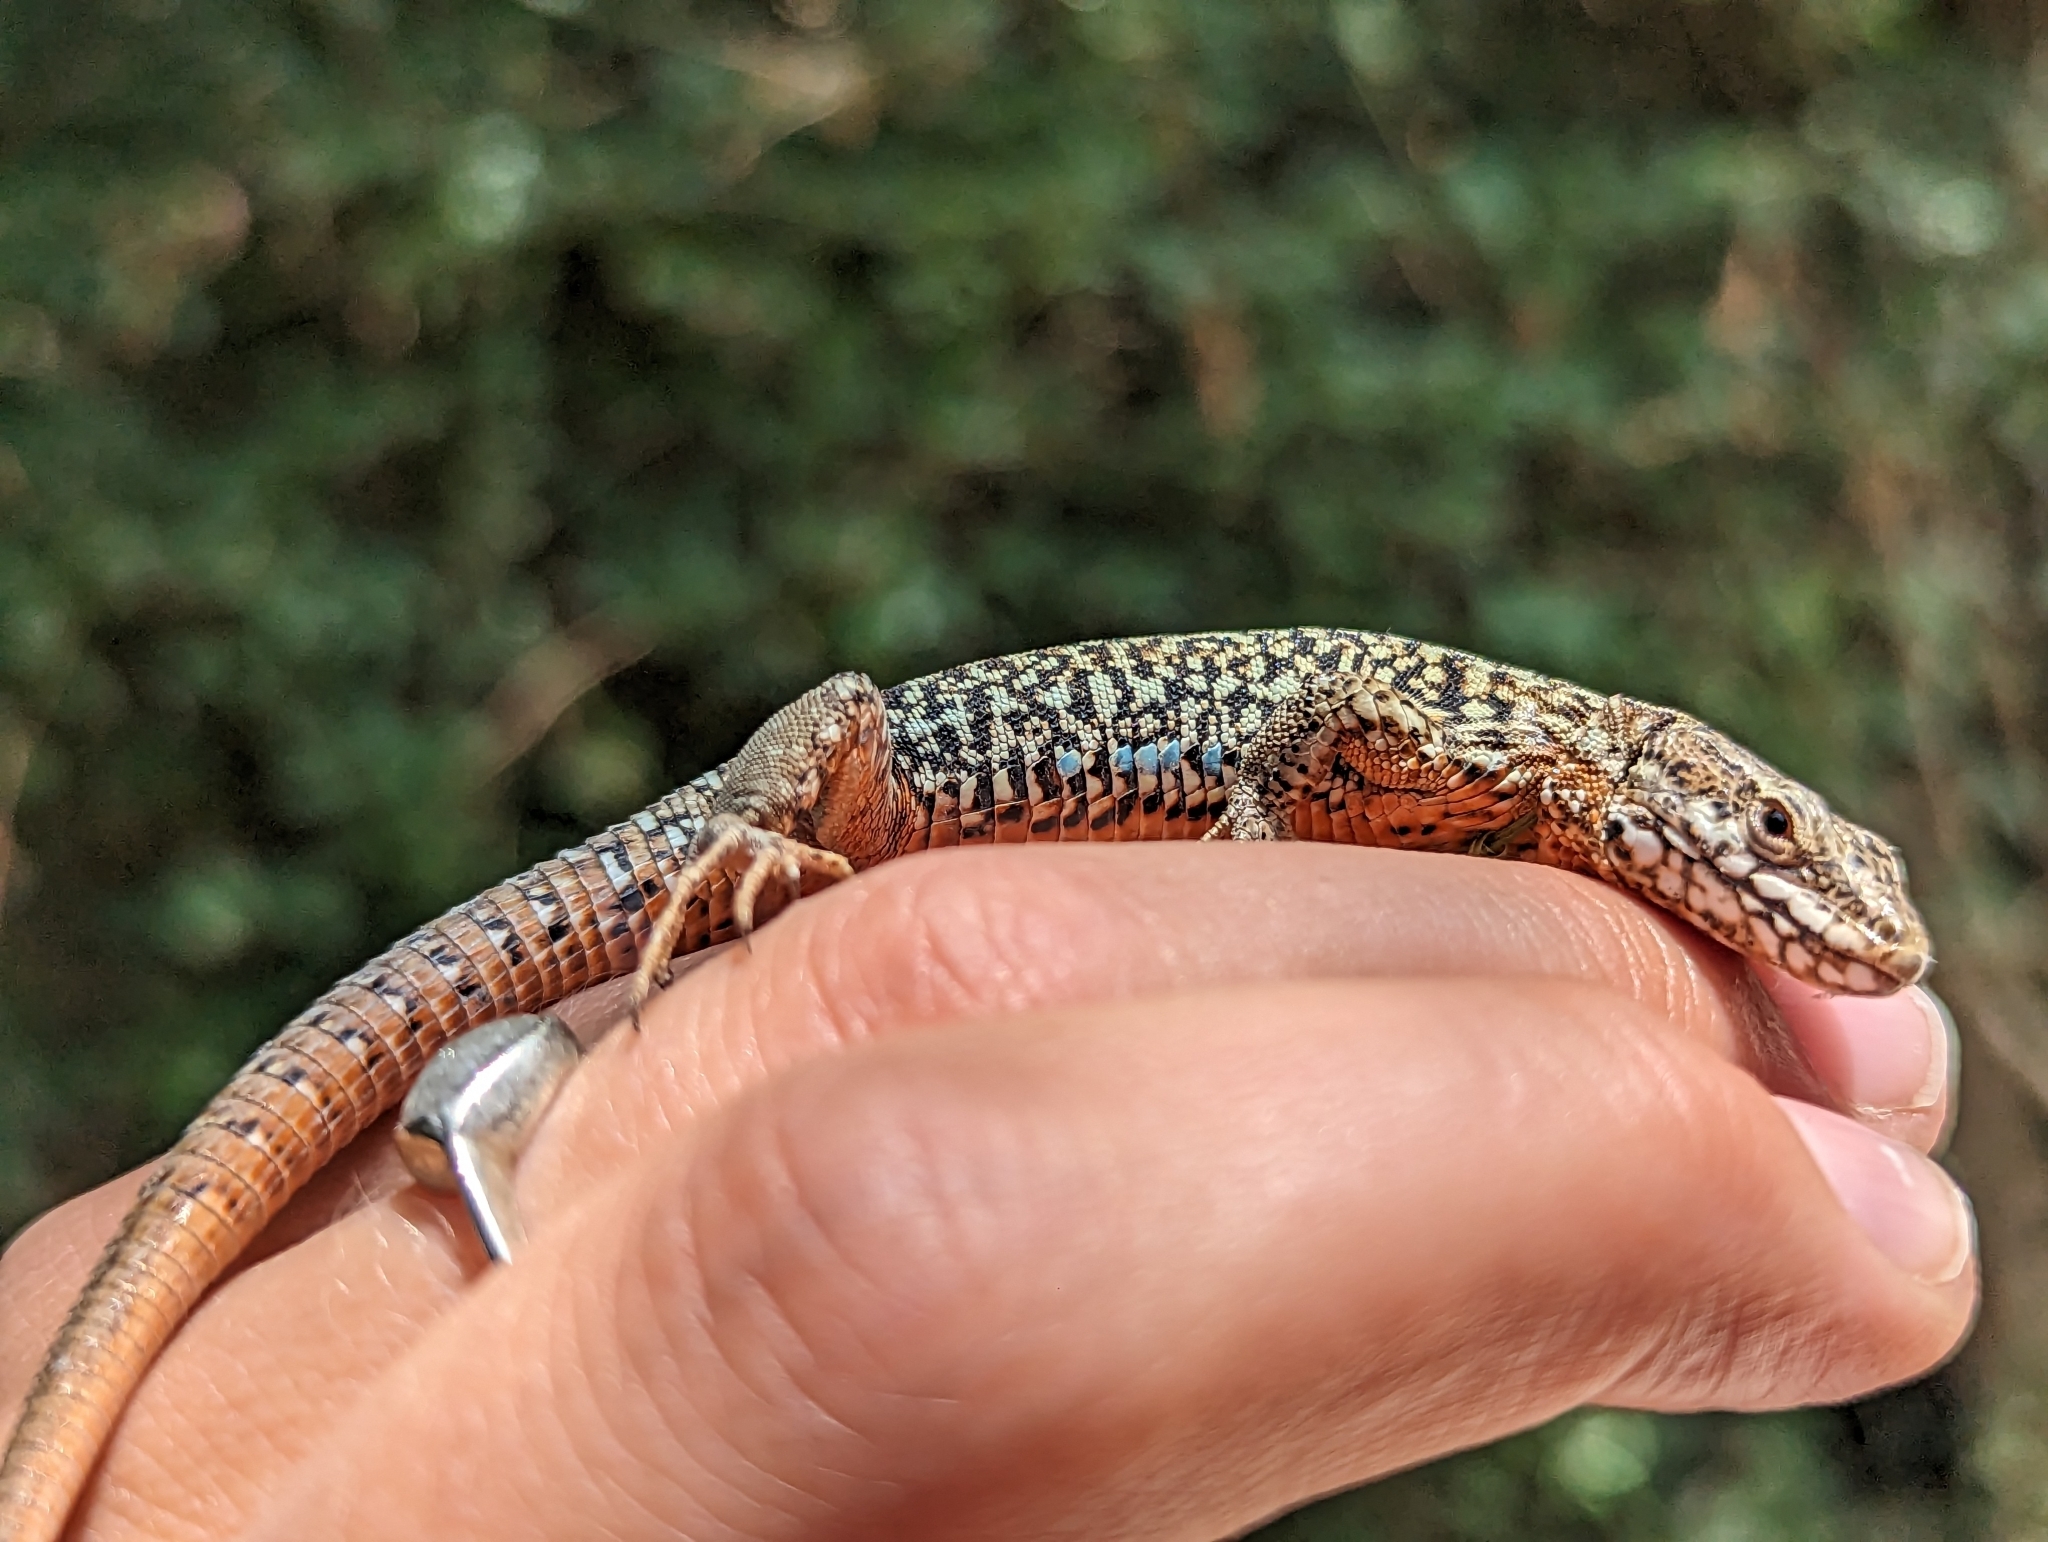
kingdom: Animalia
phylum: Chordata
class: Squamata
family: Lacertidae
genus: Podarcis
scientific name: Podarcis muralis
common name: Common wall lizard
